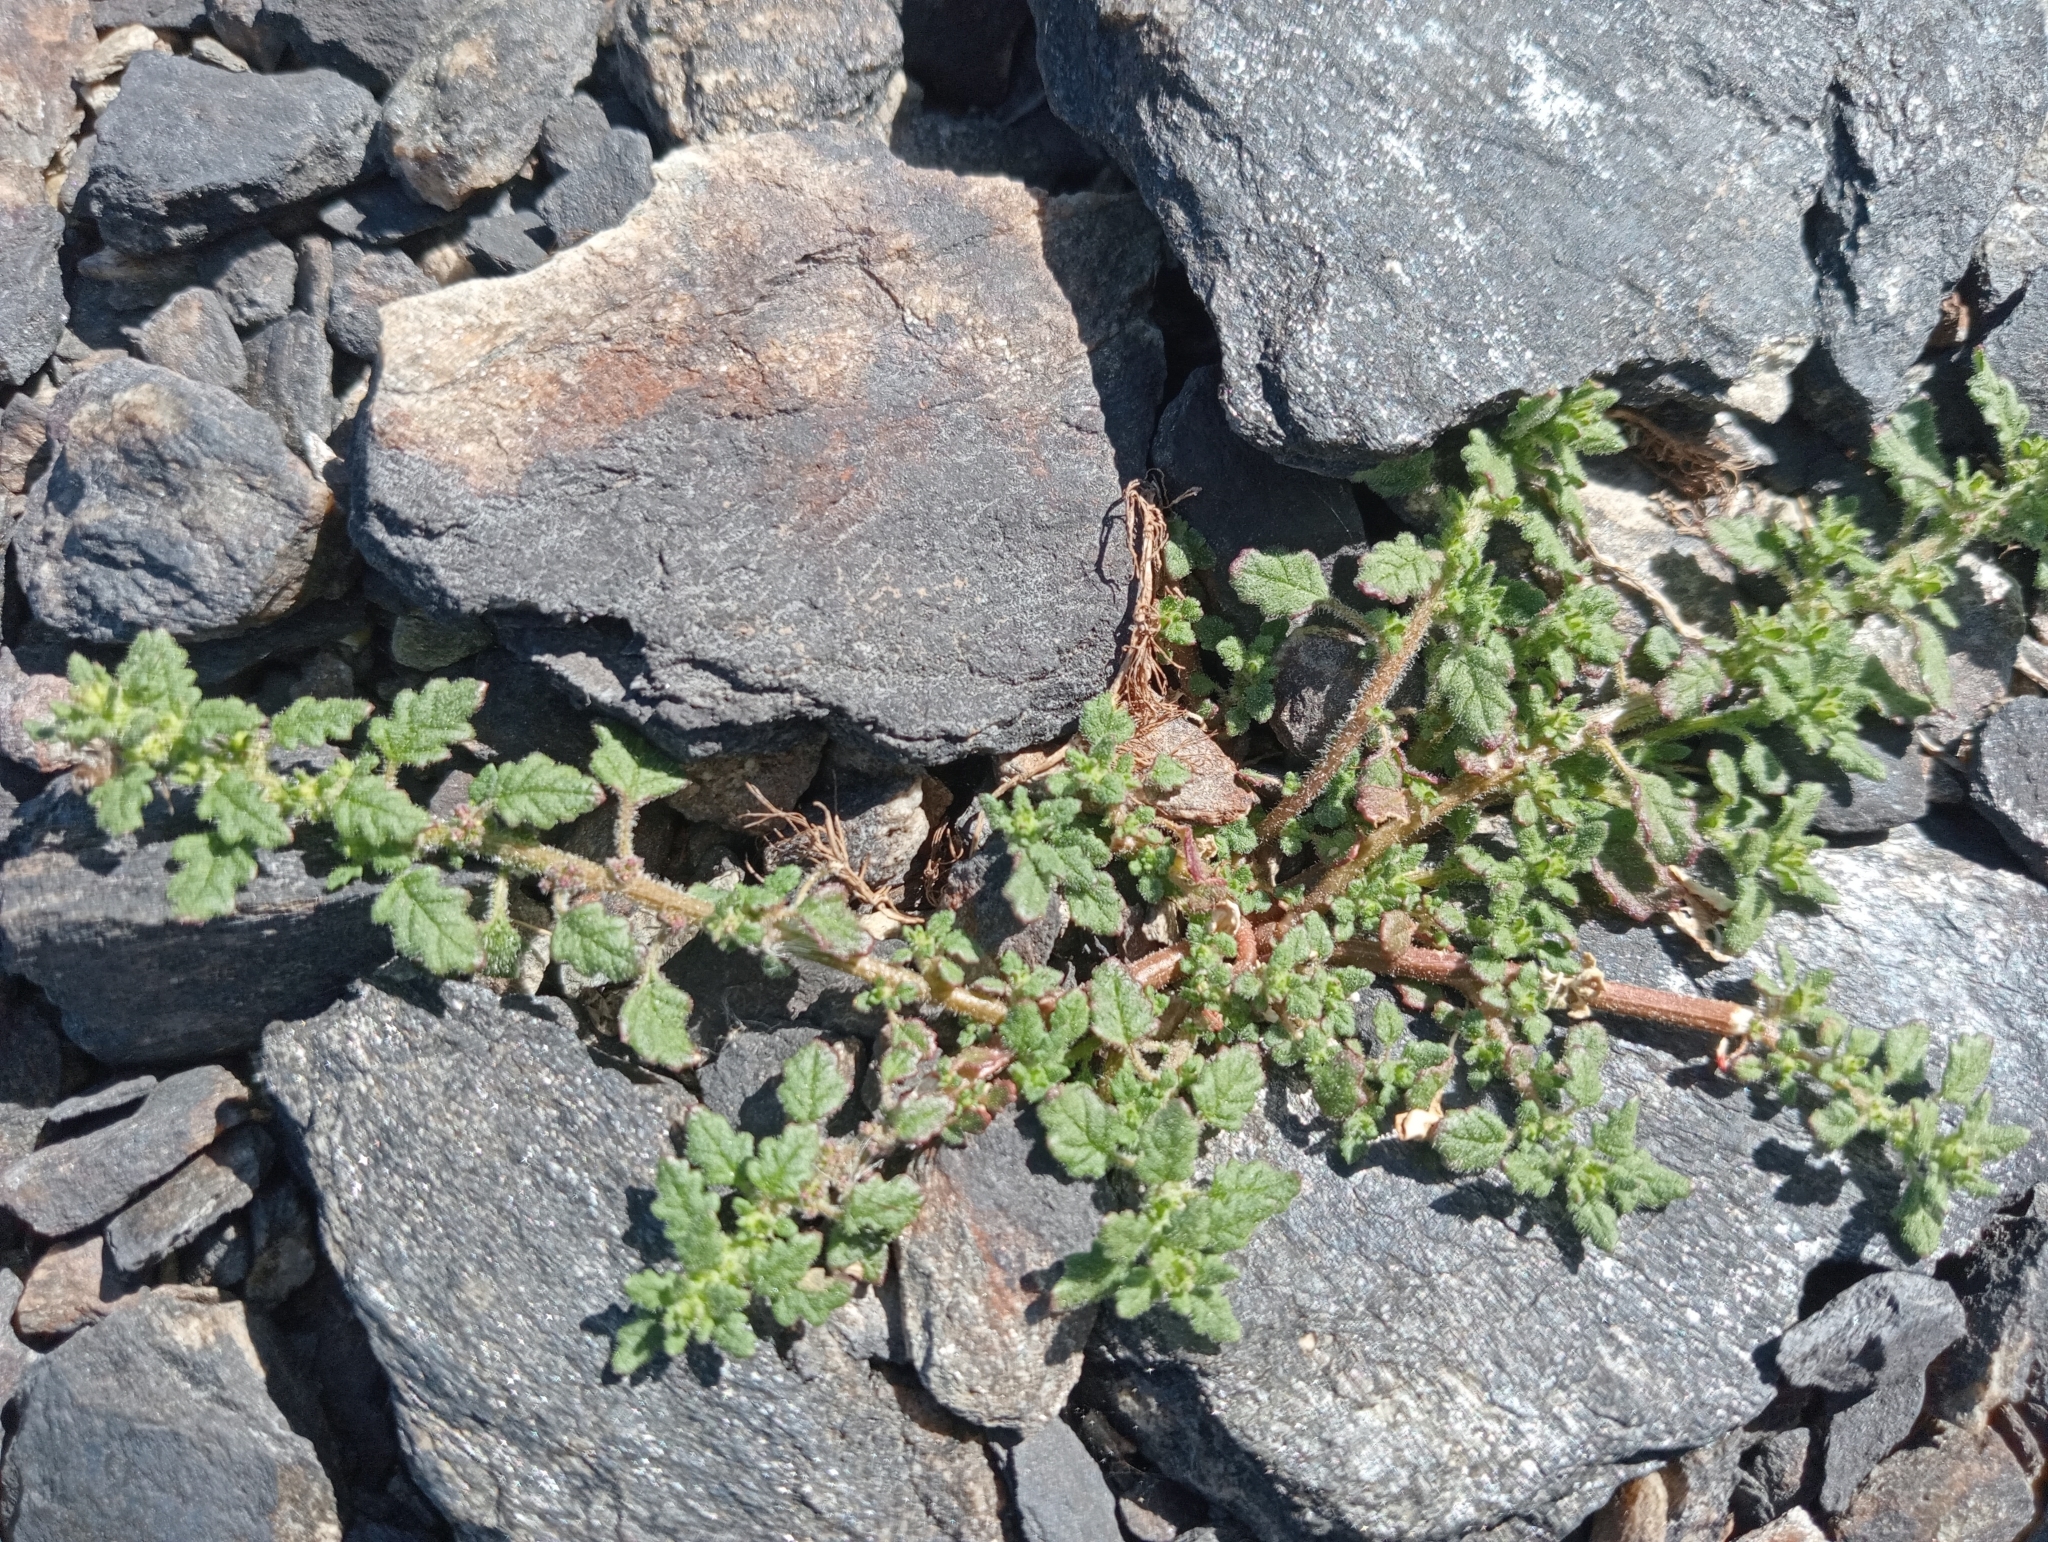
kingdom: Plantae
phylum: Tracheophyta
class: Magnoliopsida
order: Caryophyllales
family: Amaranthaceae
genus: Dysphania
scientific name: Dysphania pumilio
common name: Clammy goosefoot
